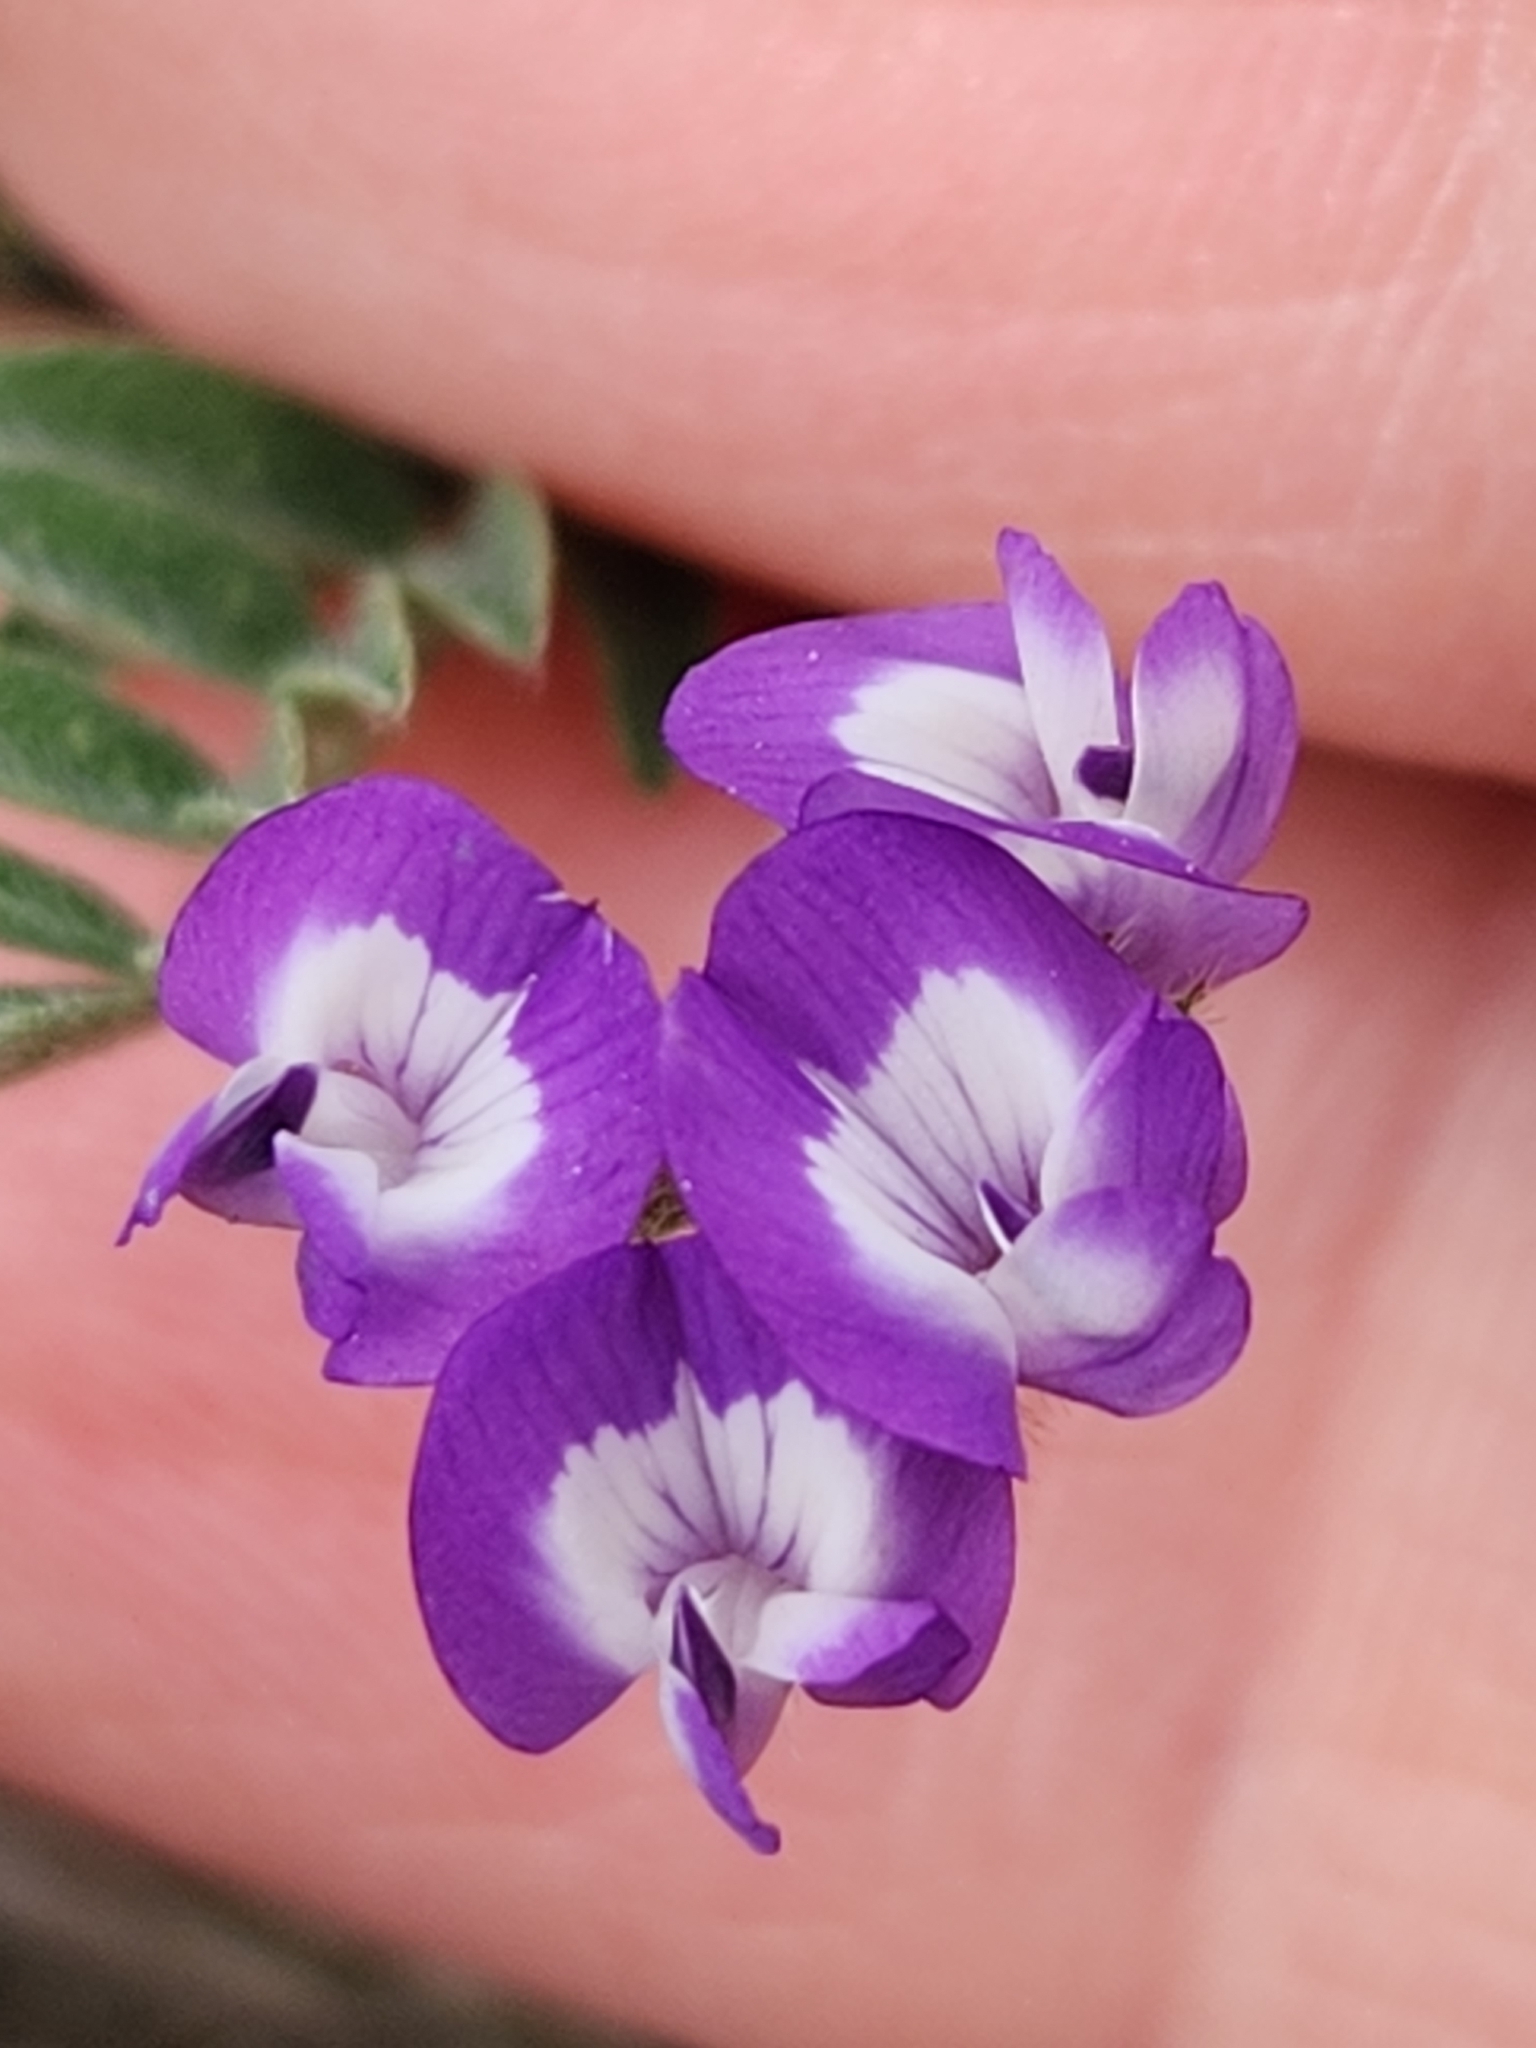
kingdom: Plantae
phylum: Tracheophyta
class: Magnoliopsida
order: Fabales
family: Fabaceae
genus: Astragalus
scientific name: Astragalus nuttallianus
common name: Smallflowered milkvetch
